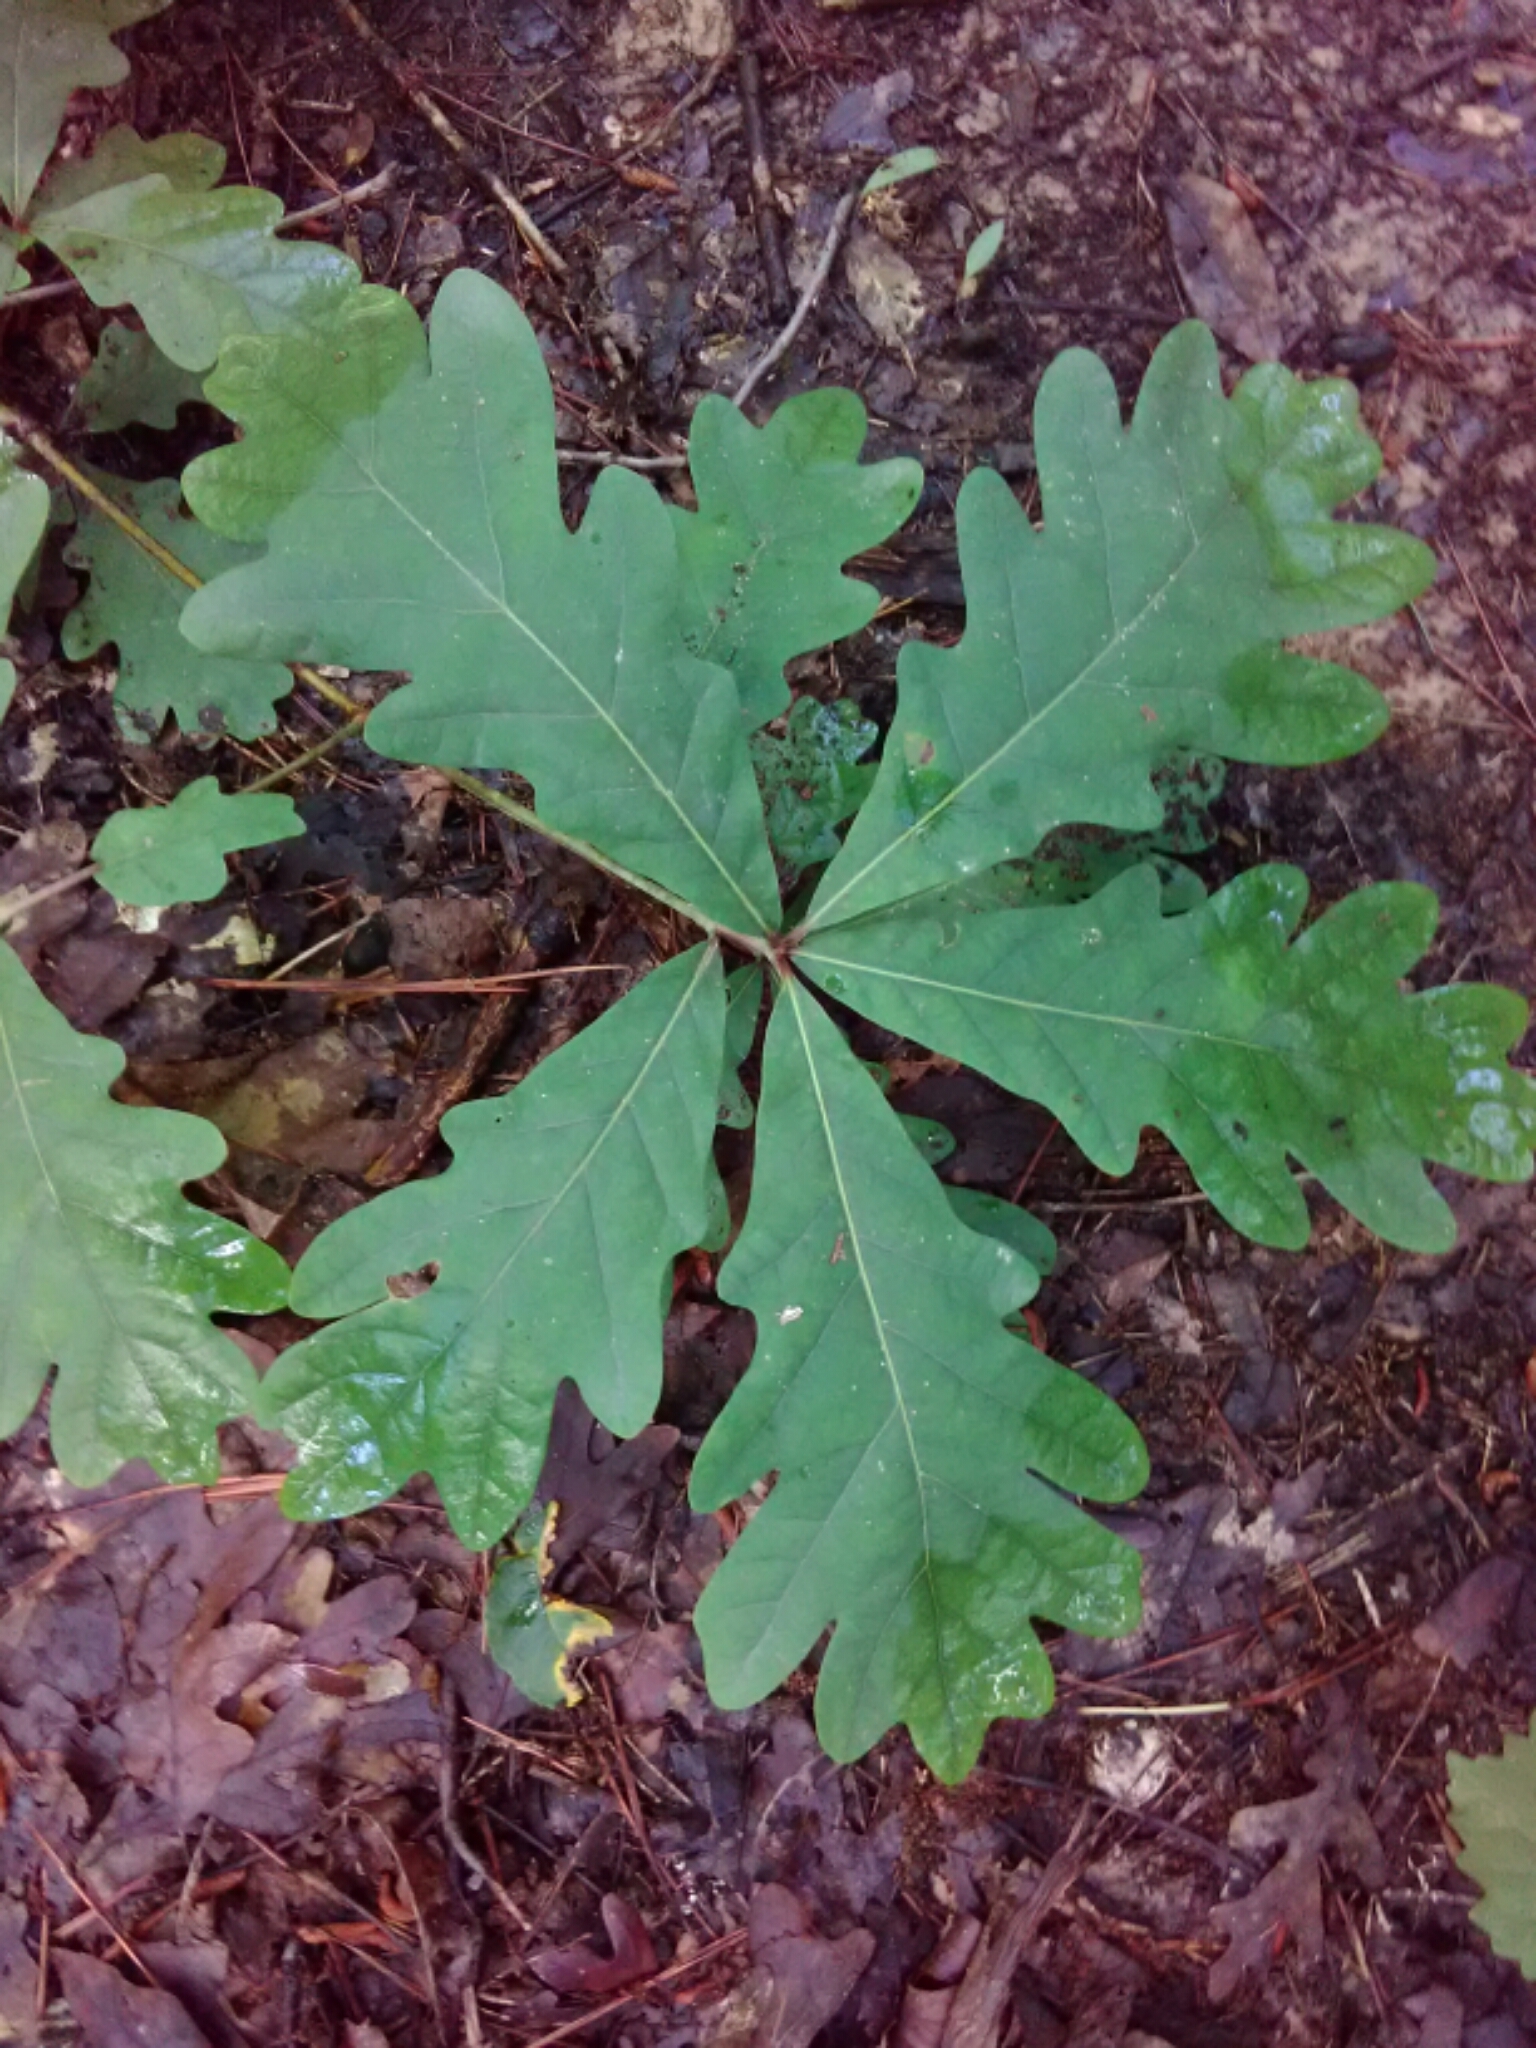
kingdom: Plantae
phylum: Tracheophyta
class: Magnoliopsida
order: Fagales
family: Fagaceae
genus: Quercus
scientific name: Quercus alba
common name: White oak
